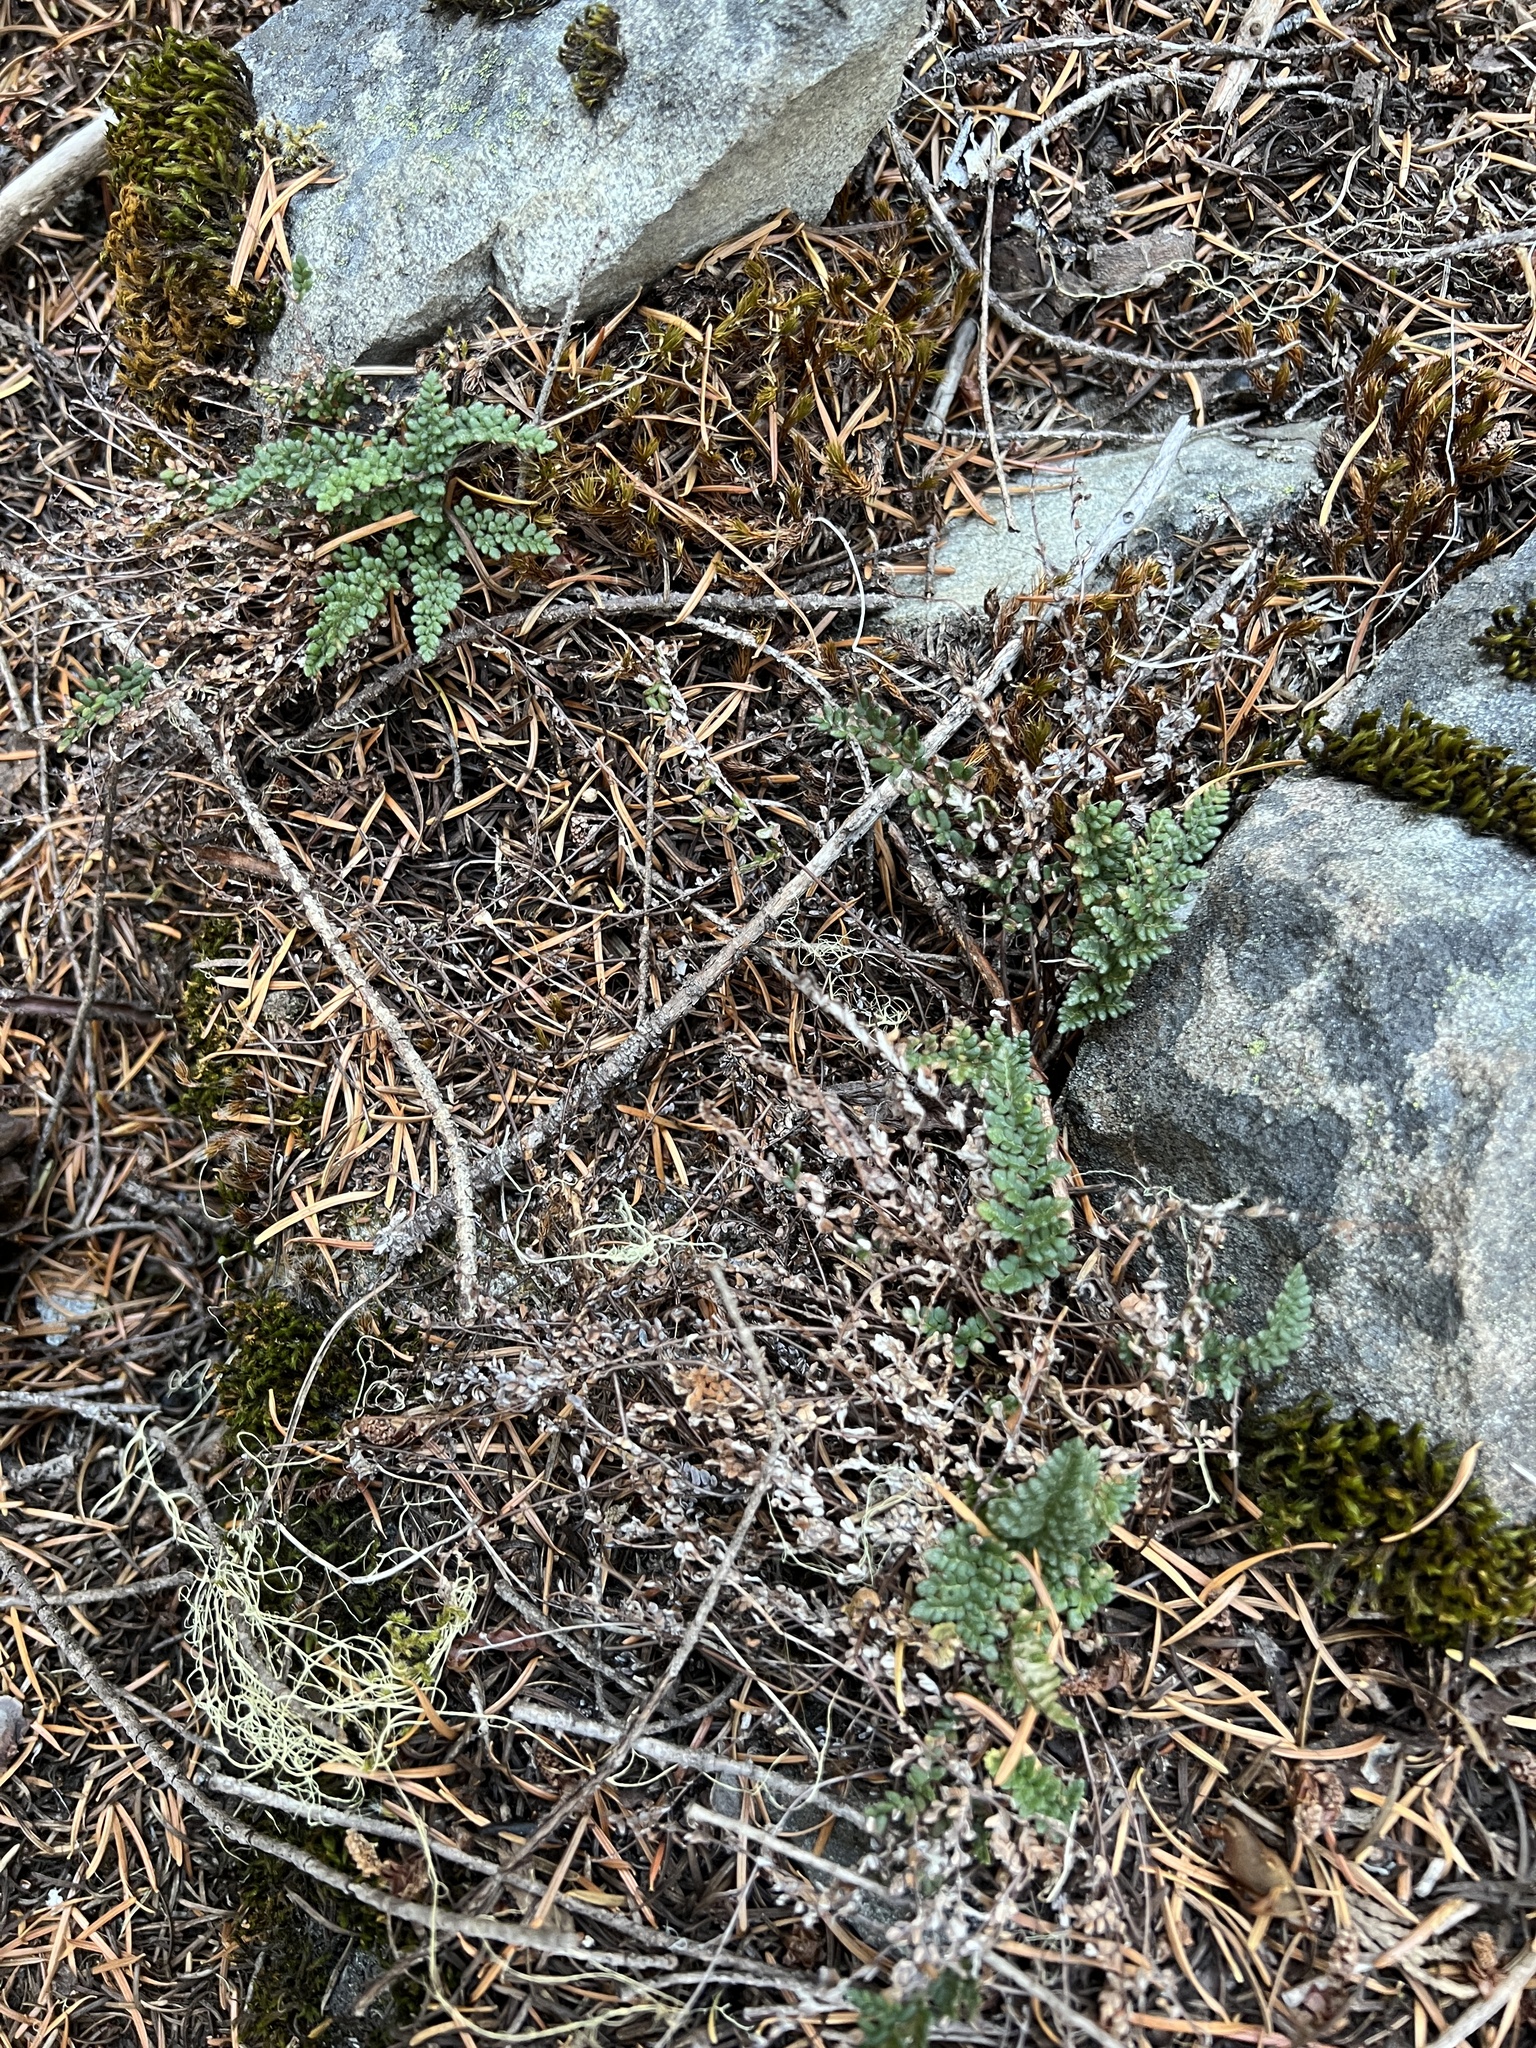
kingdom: Plantae
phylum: Tracheophyta
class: Polypodiopsida
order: Polypodiales
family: Pteridaceae
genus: Myriopteris
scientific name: Myriopteris gracillima
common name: Lace fern
